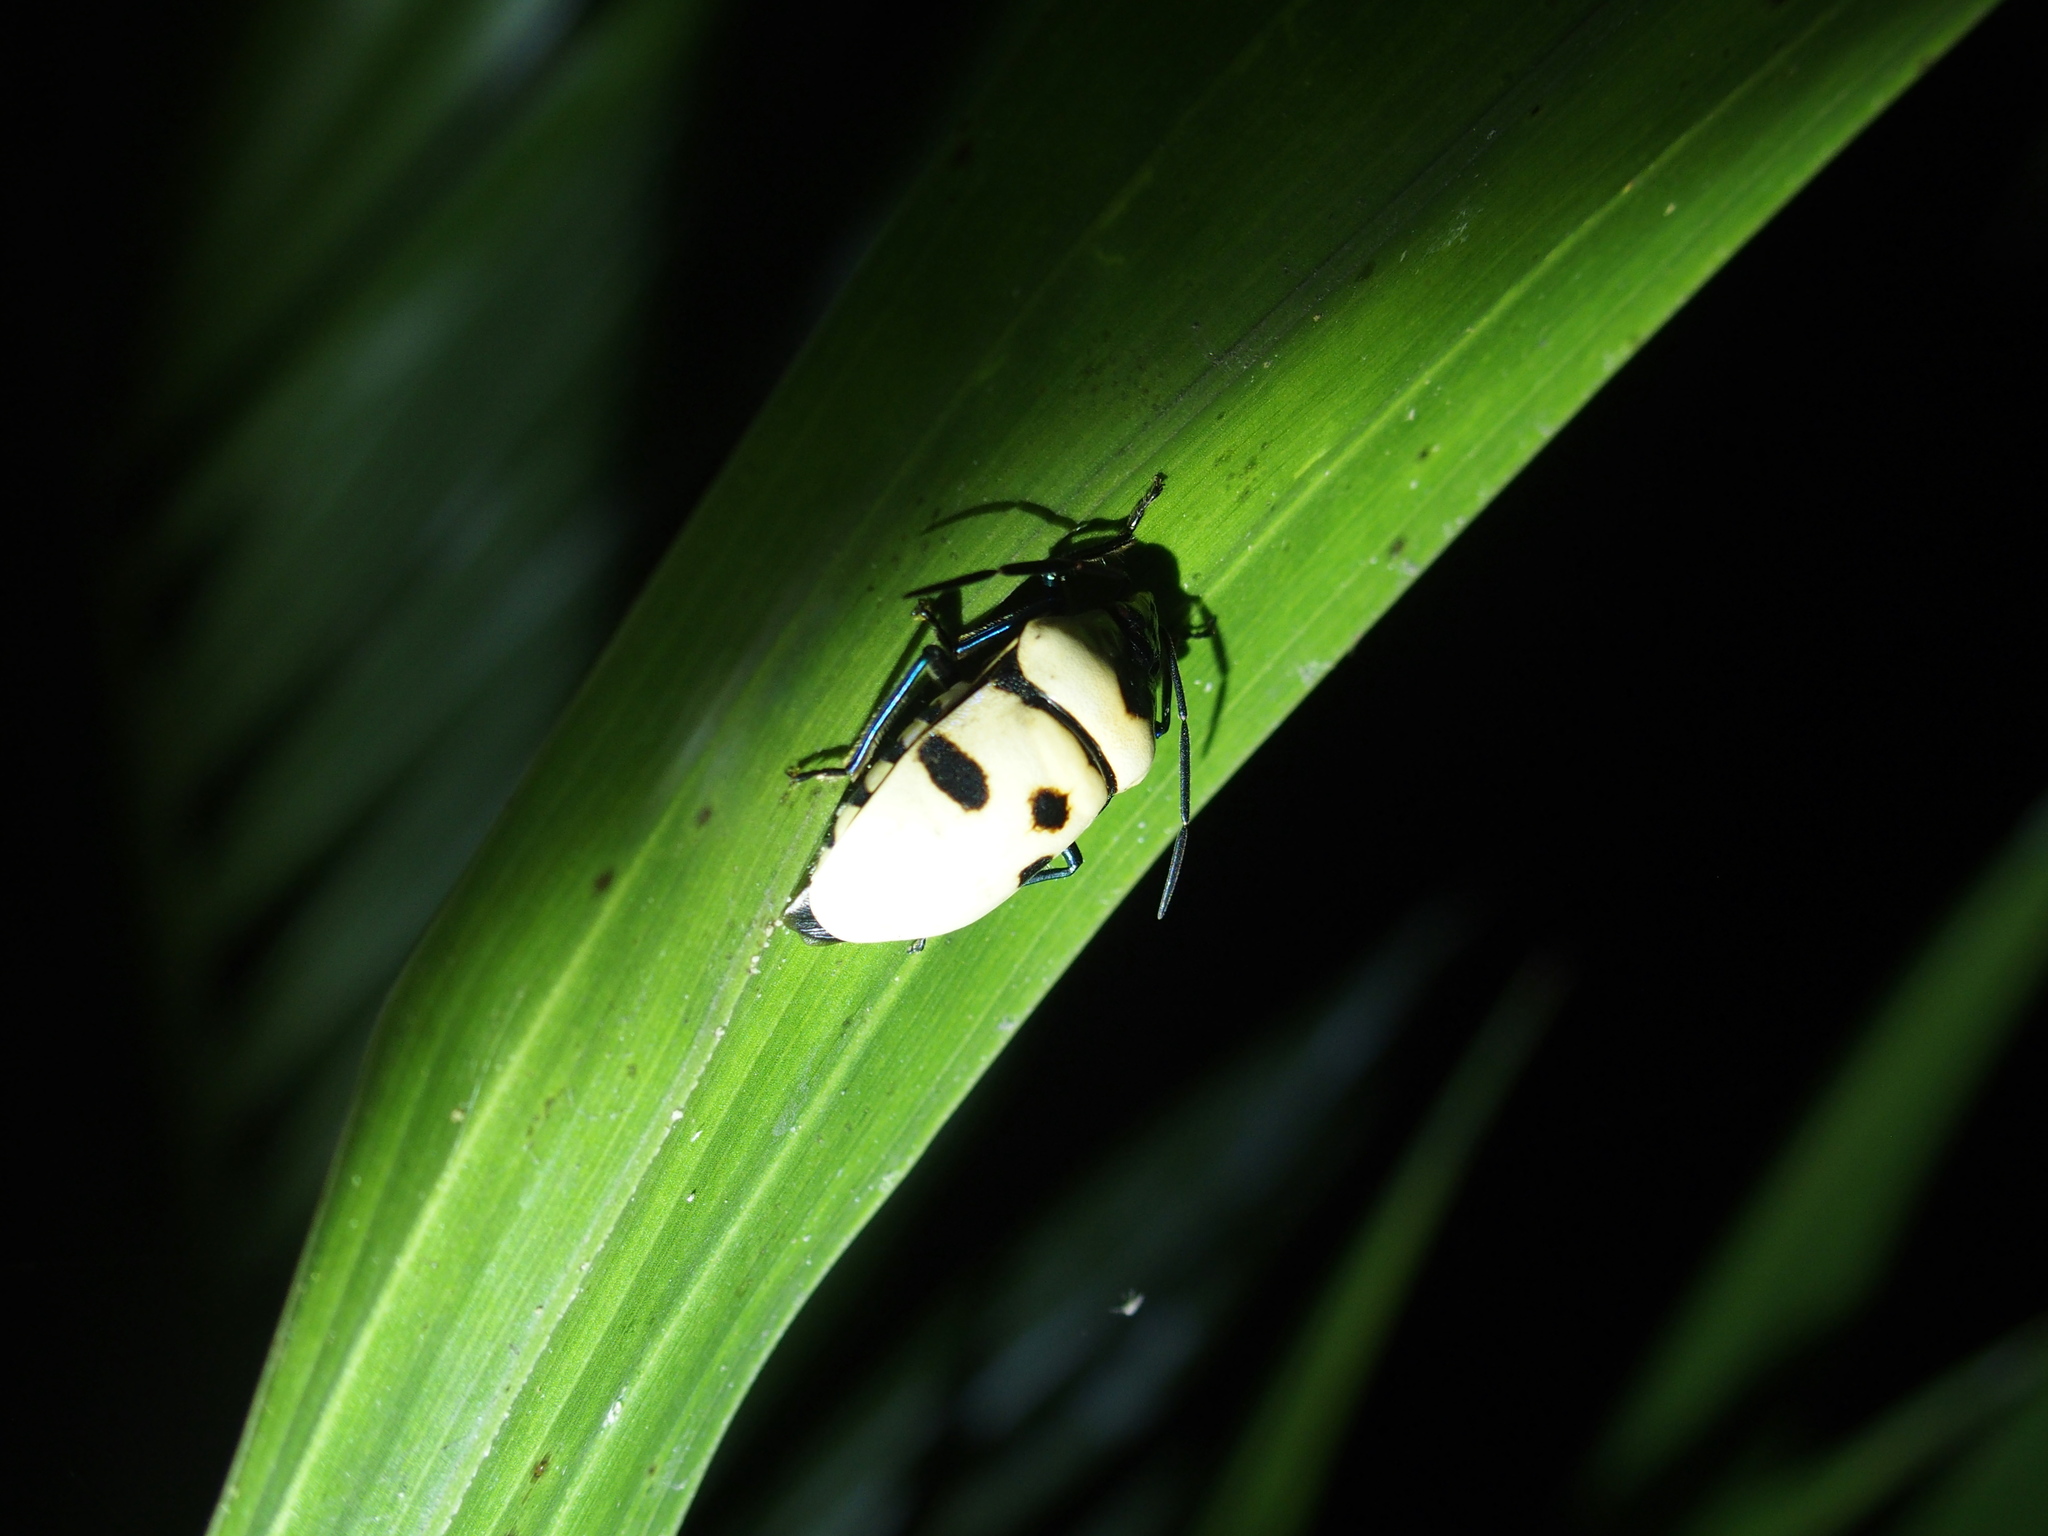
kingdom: Animalia
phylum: Arthropoda
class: Insecta
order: Hemiptera
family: Scutelleridae
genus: Eucorysses
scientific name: Eucorysses grandis
